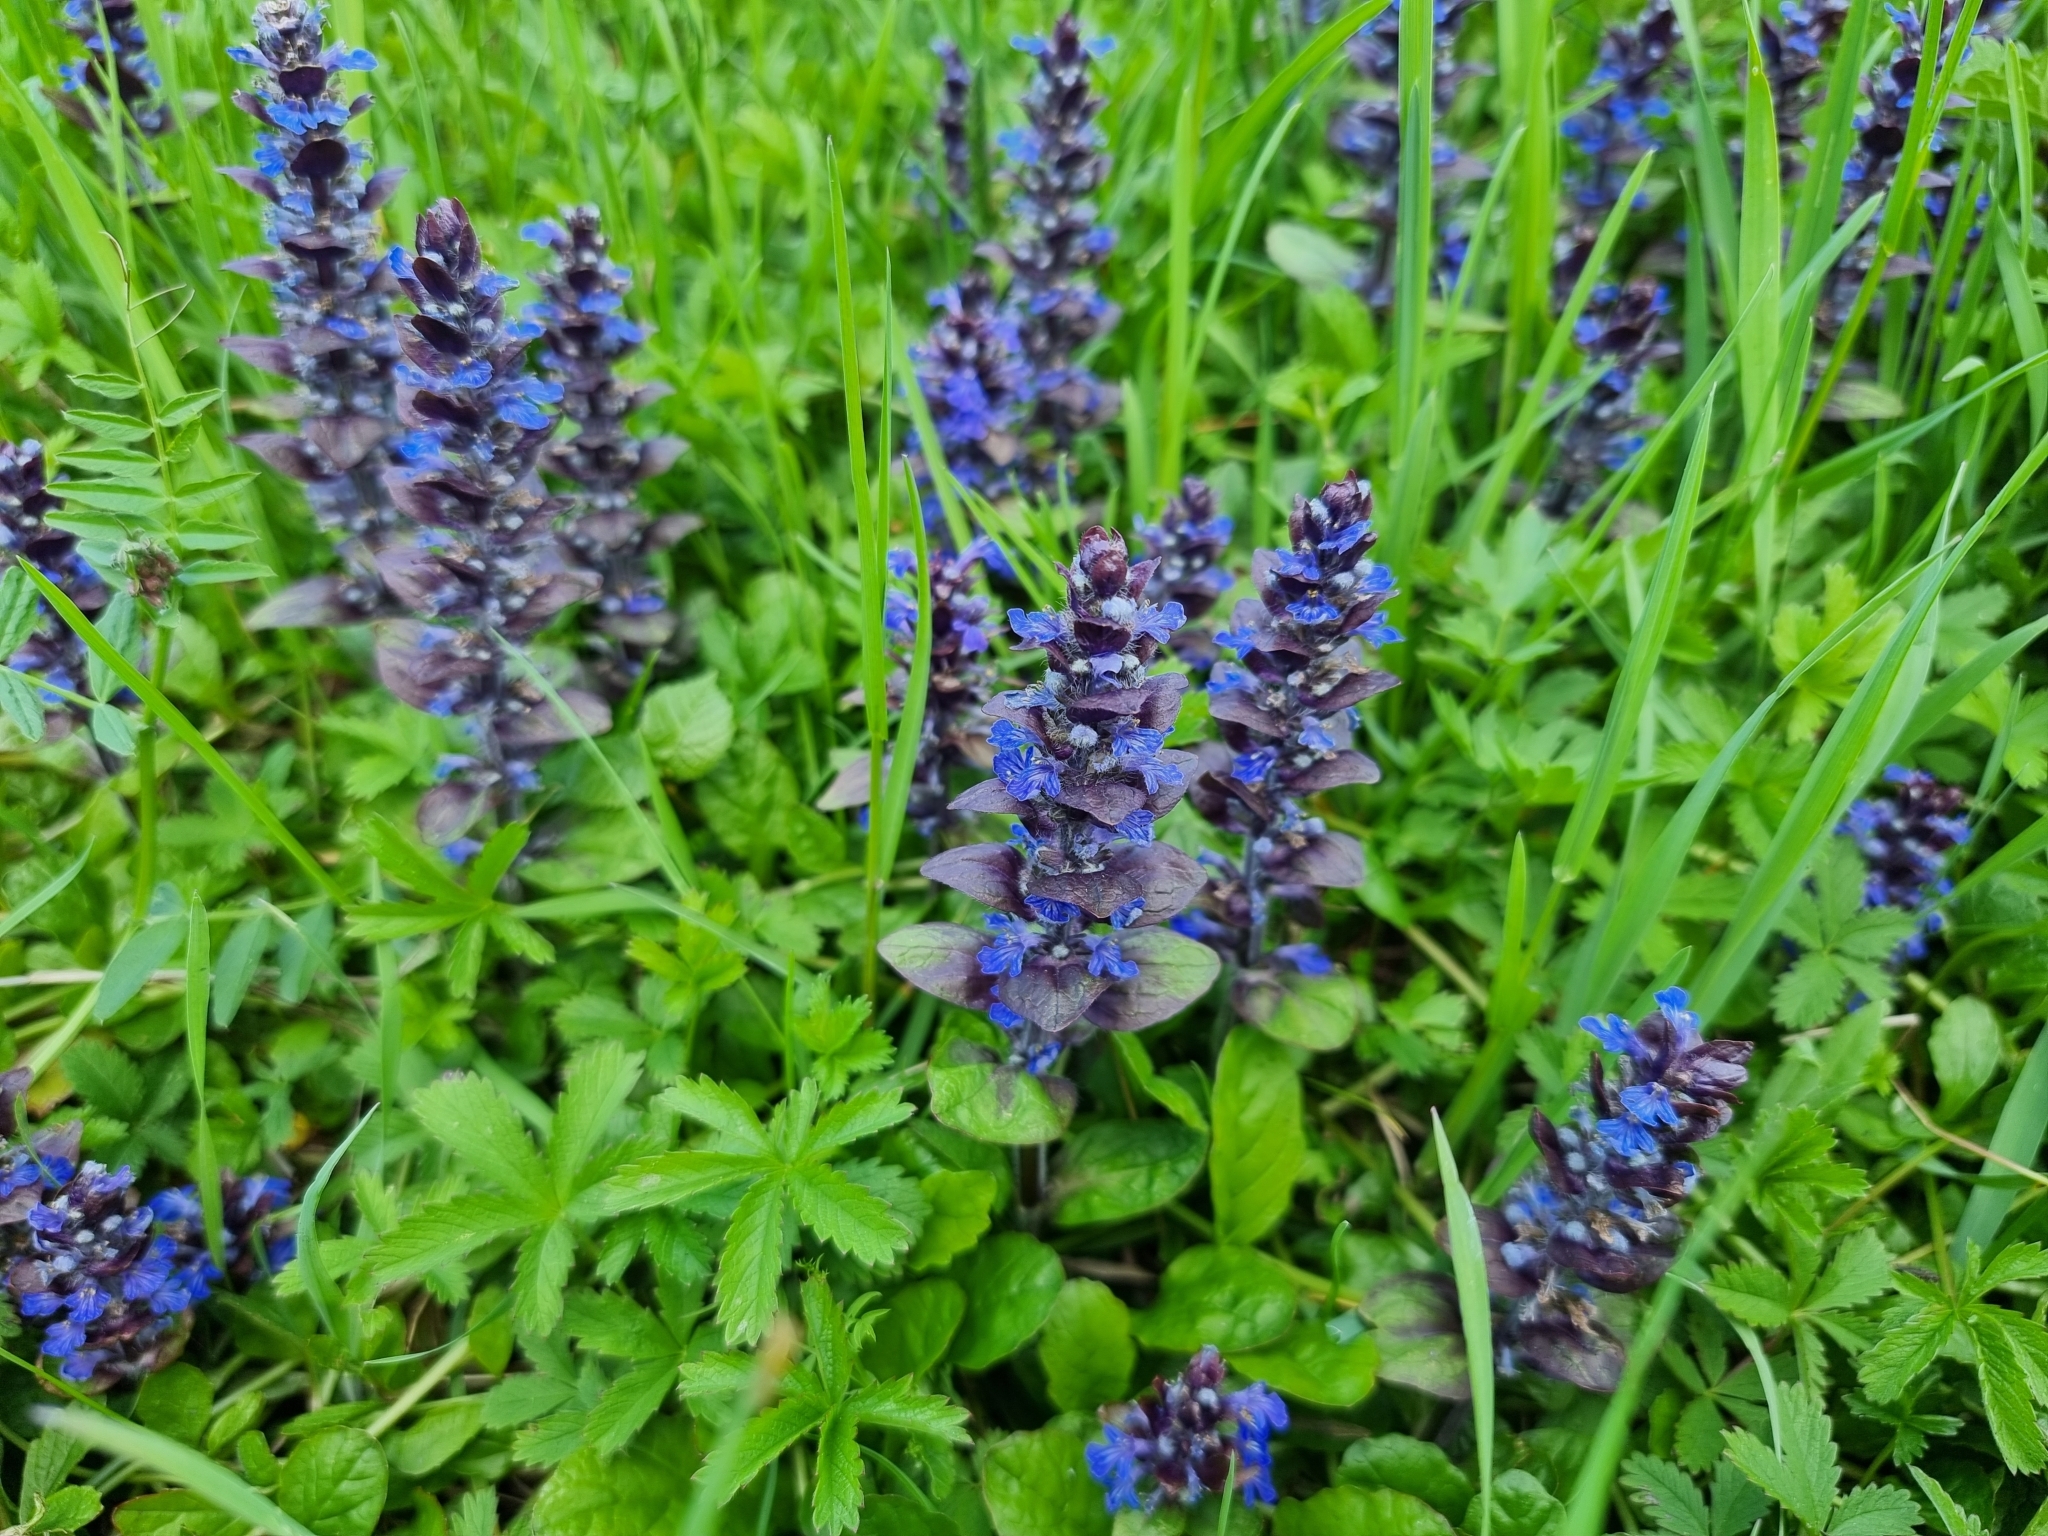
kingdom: Plantae
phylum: Tracheophyta
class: Magnoliopsida
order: Lamiales
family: Lamiaceae
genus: Ajuga
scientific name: Ajuga reptans
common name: Bugle
